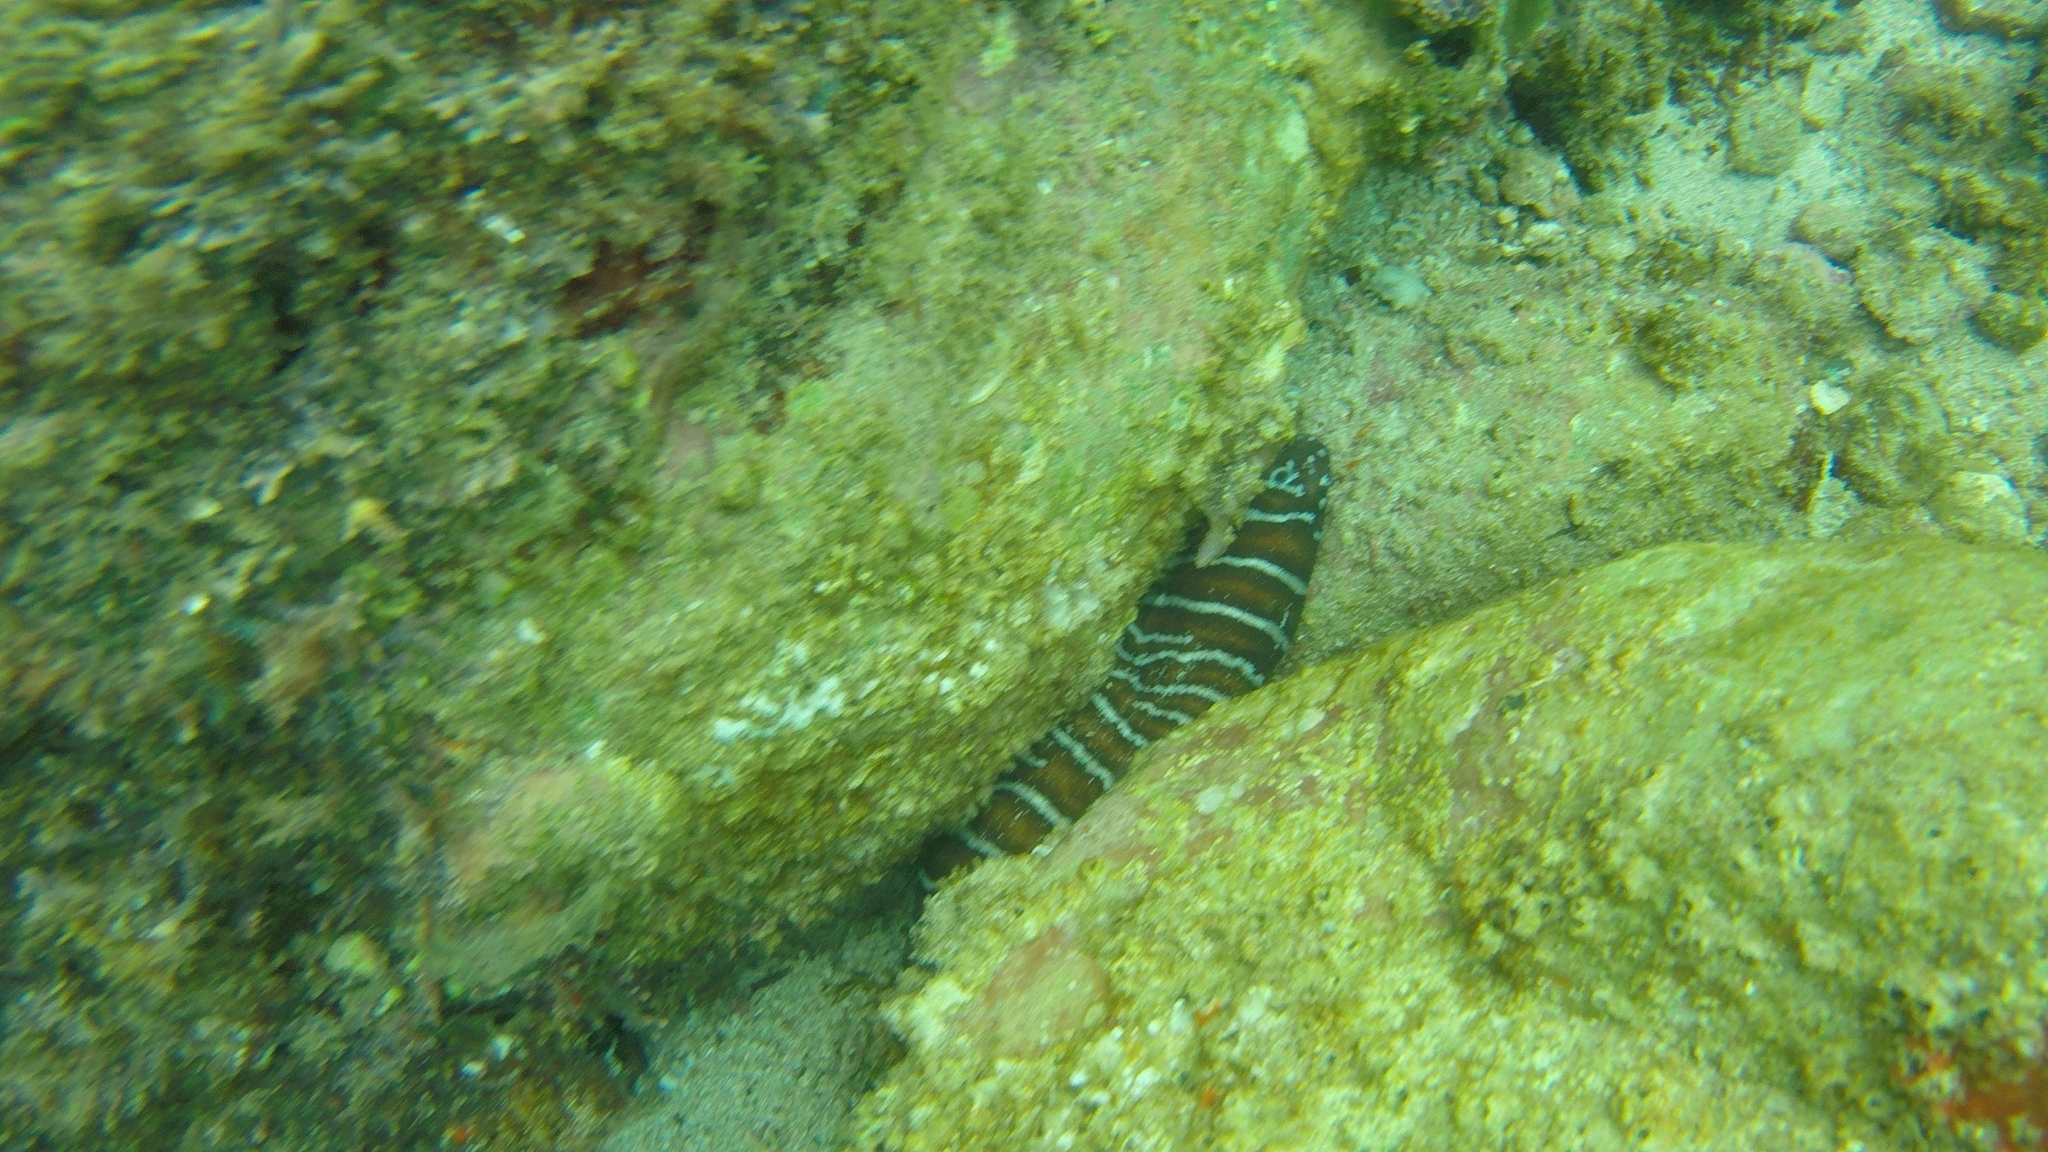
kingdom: Animalia
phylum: Chordata
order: Anguilliformes
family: Muraenidae
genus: Gymnomuraena
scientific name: Gymnomuraena zebra
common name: Zebra moray
